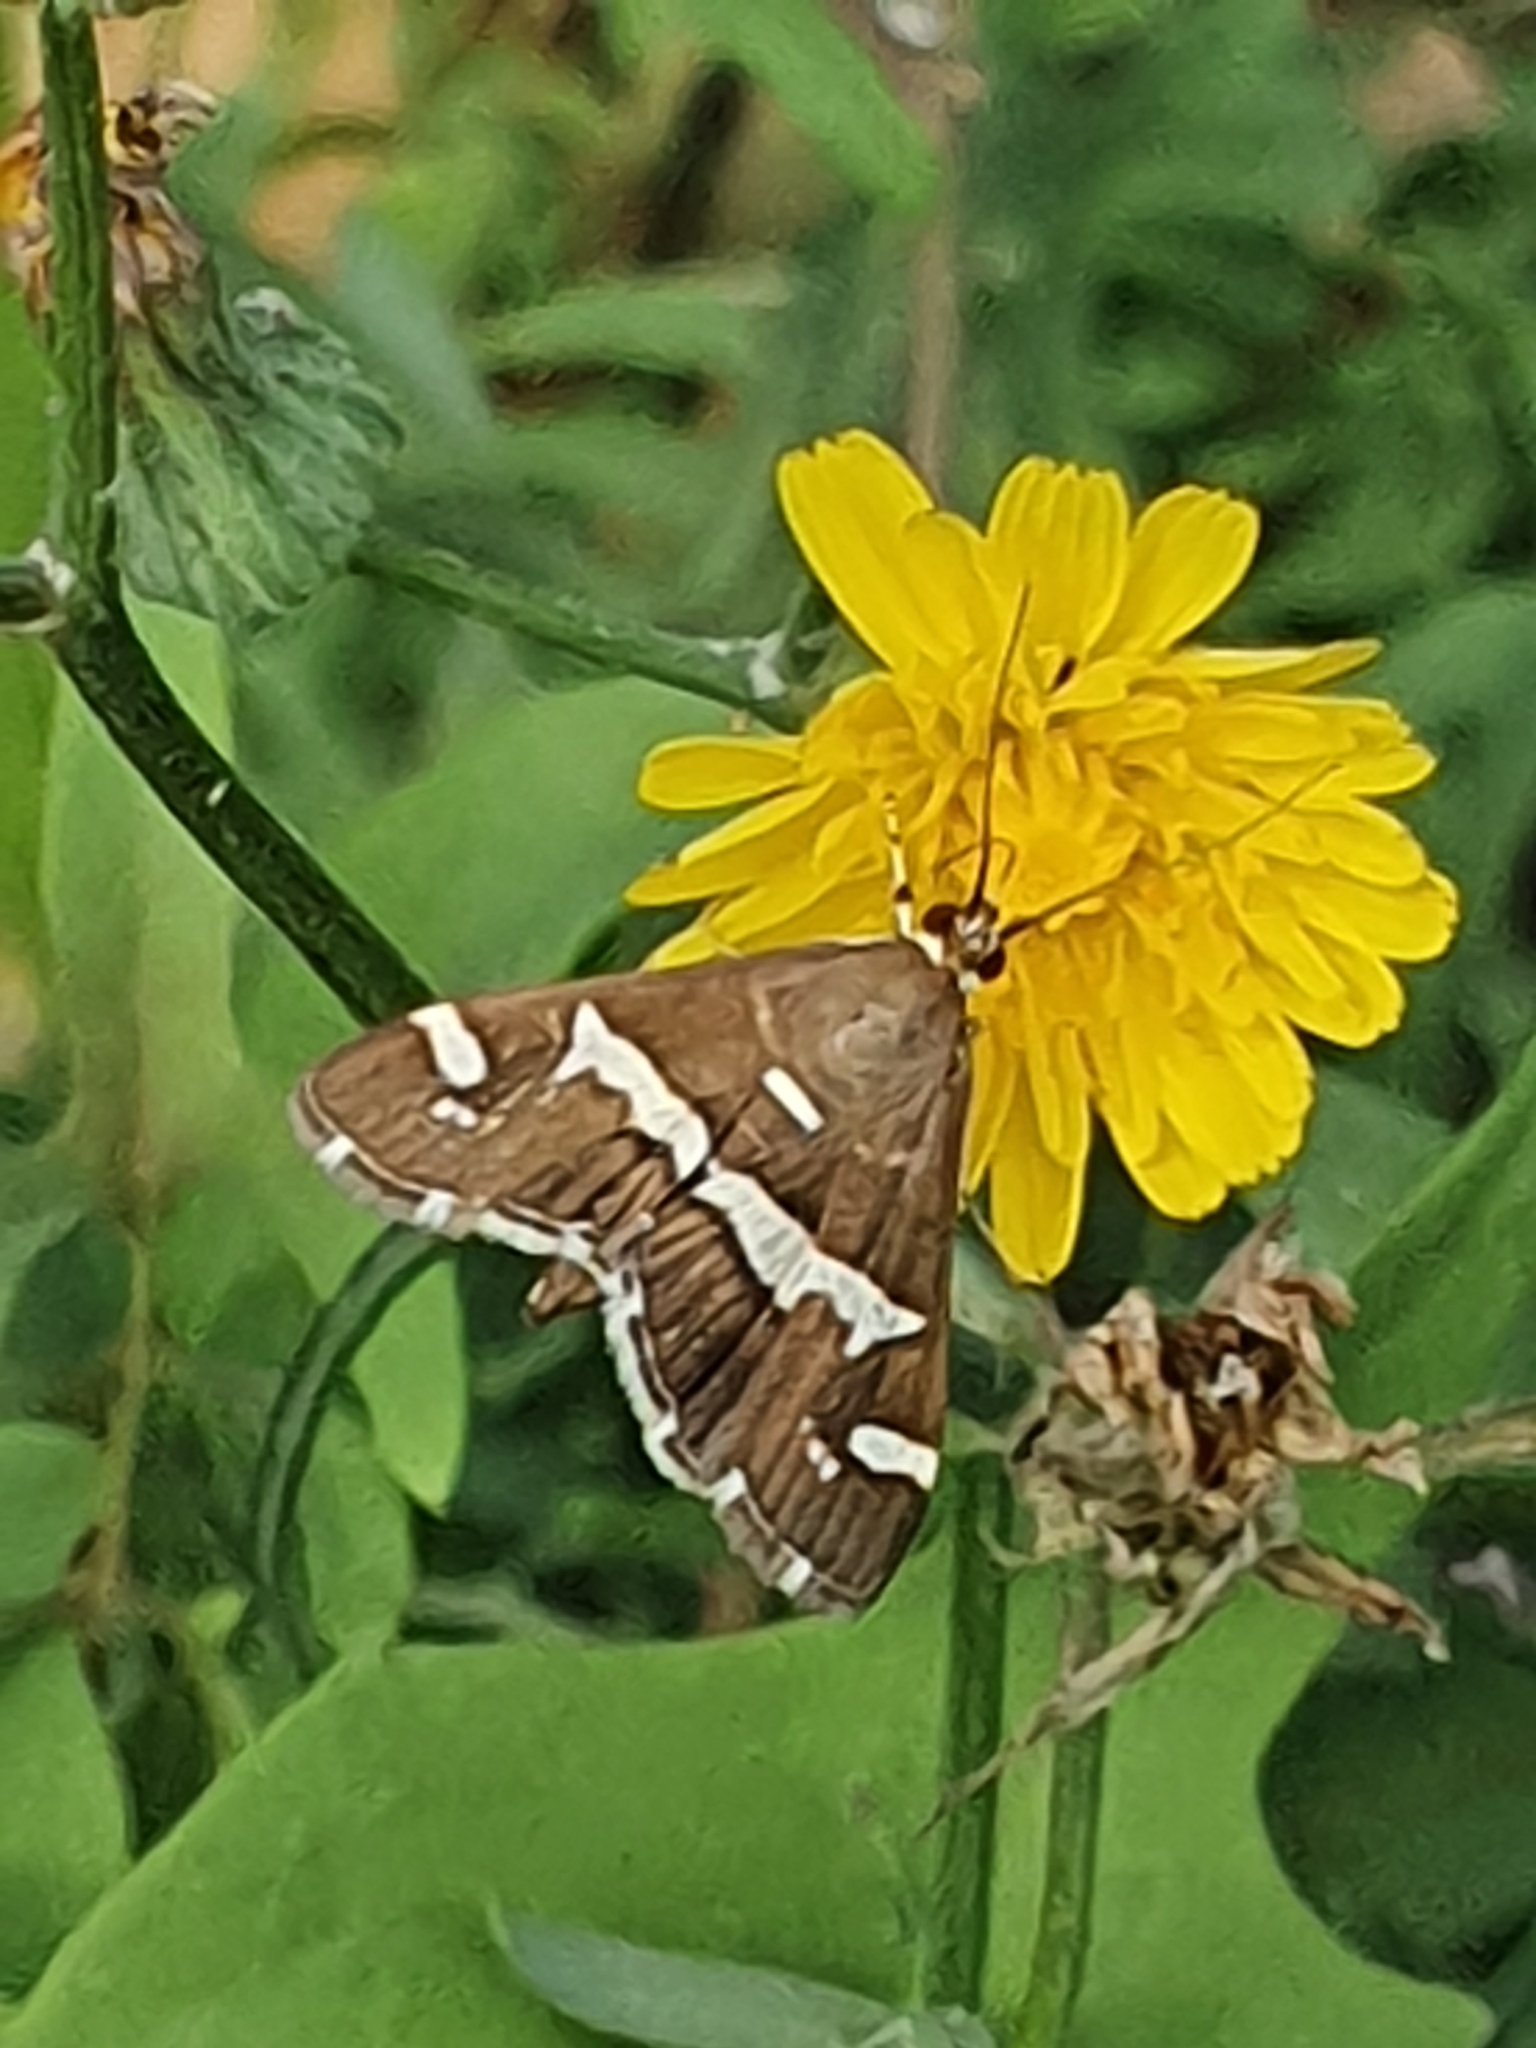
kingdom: Animalia
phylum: Arthropoda
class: Insecta
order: Lepidoptera
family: Crambidae
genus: Spoladea
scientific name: Spoladea recurvalis
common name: Beet webworm moth
